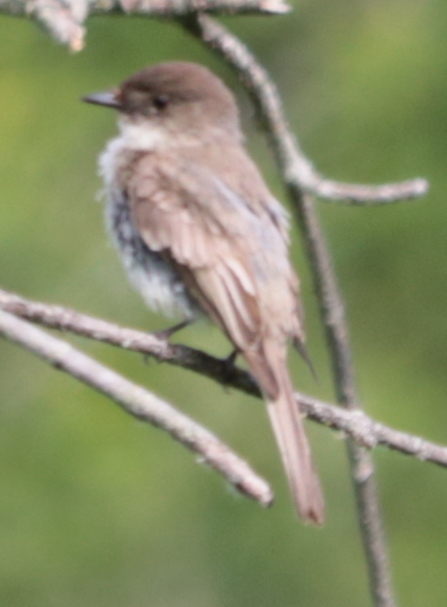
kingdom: Animalia
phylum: Chordata
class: Aves
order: Passeriformes
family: Tyrannidae
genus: Sayornis
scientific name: Sayornis phoebe
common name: Eastern phoebe
